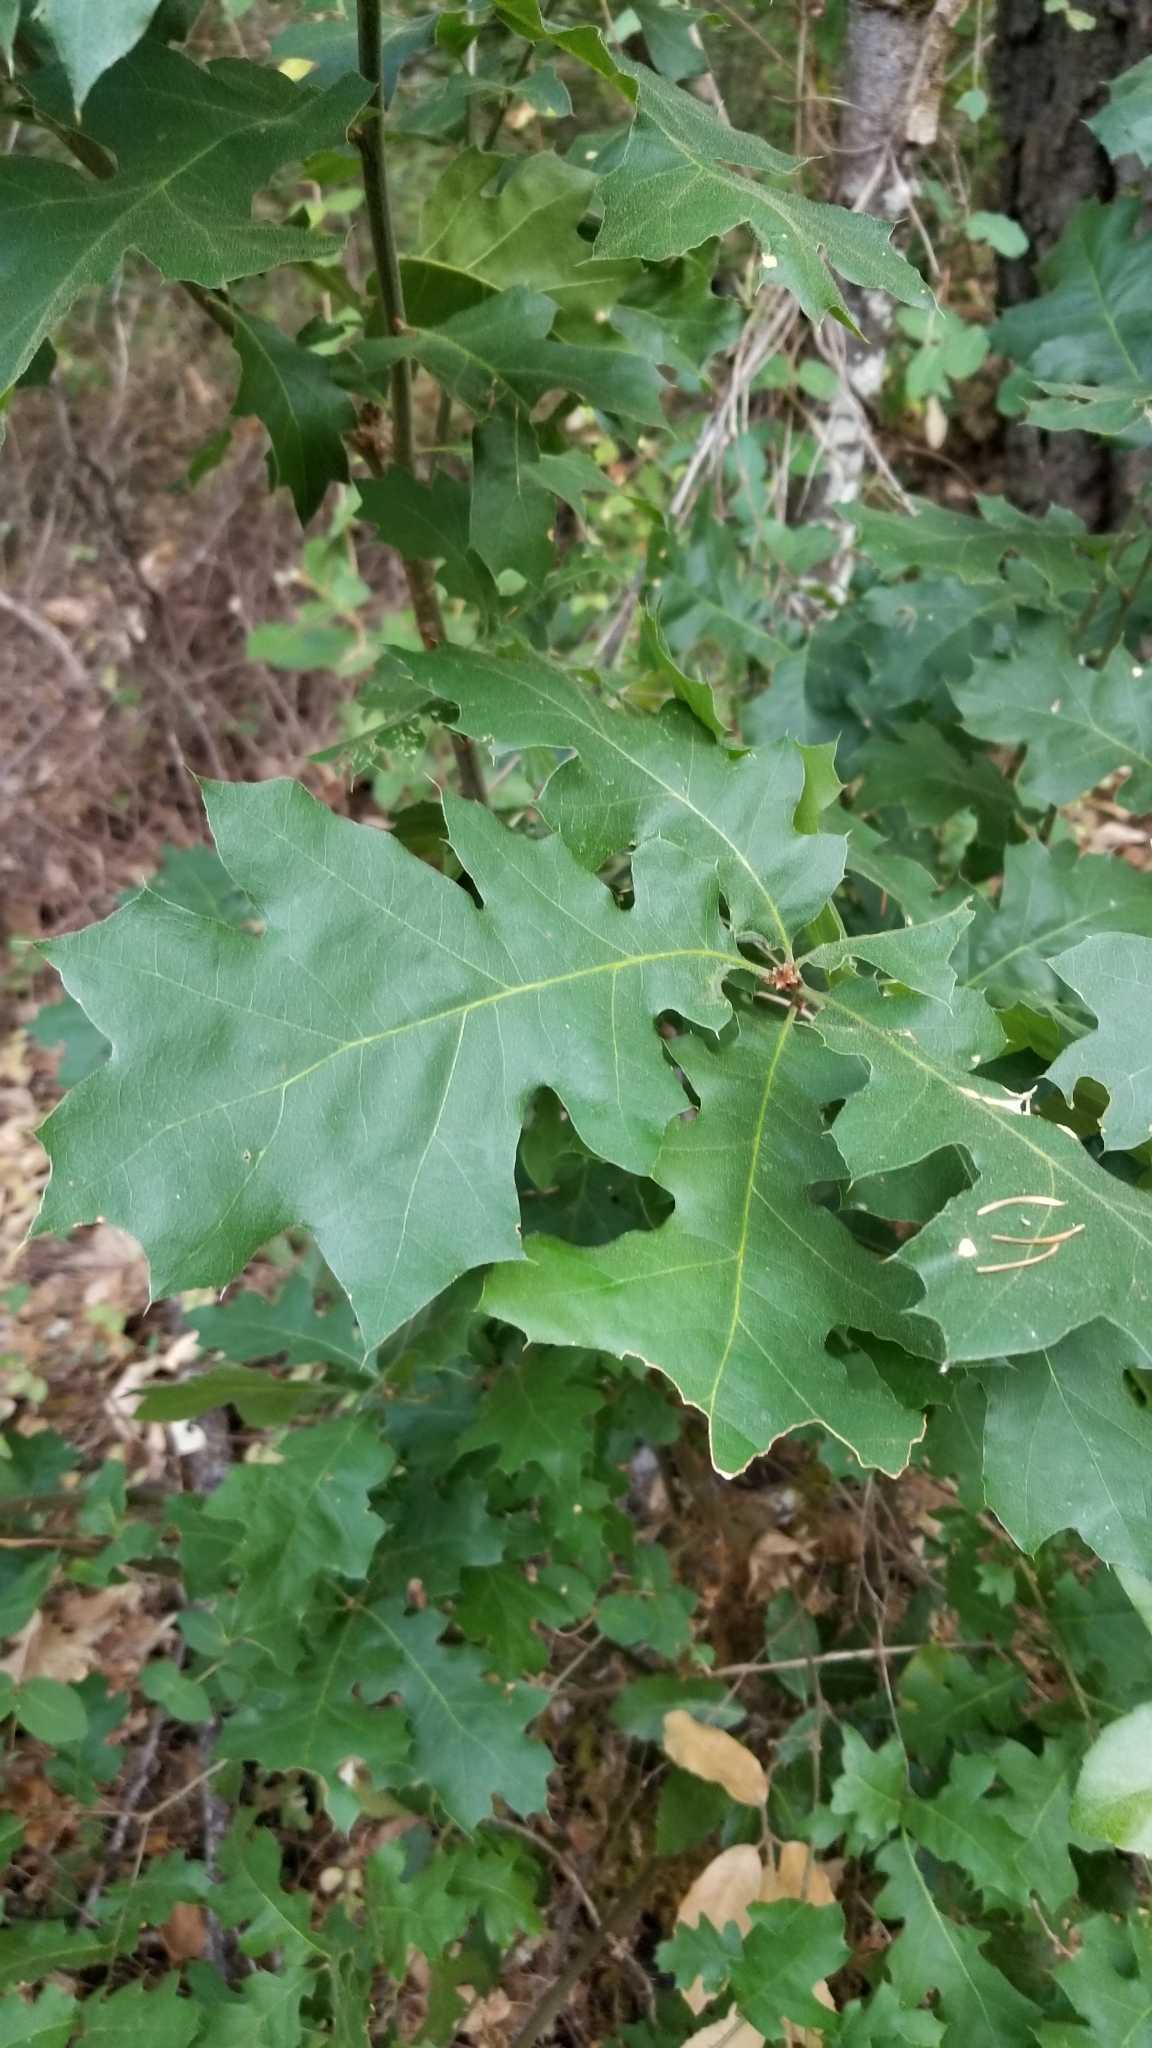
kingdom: Plantae
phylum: Tracheophyta
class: Magnoliopsida
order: Fagales
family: Fagaceae
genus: Quercus
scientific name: Quercus kelloggii
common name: California black oak
